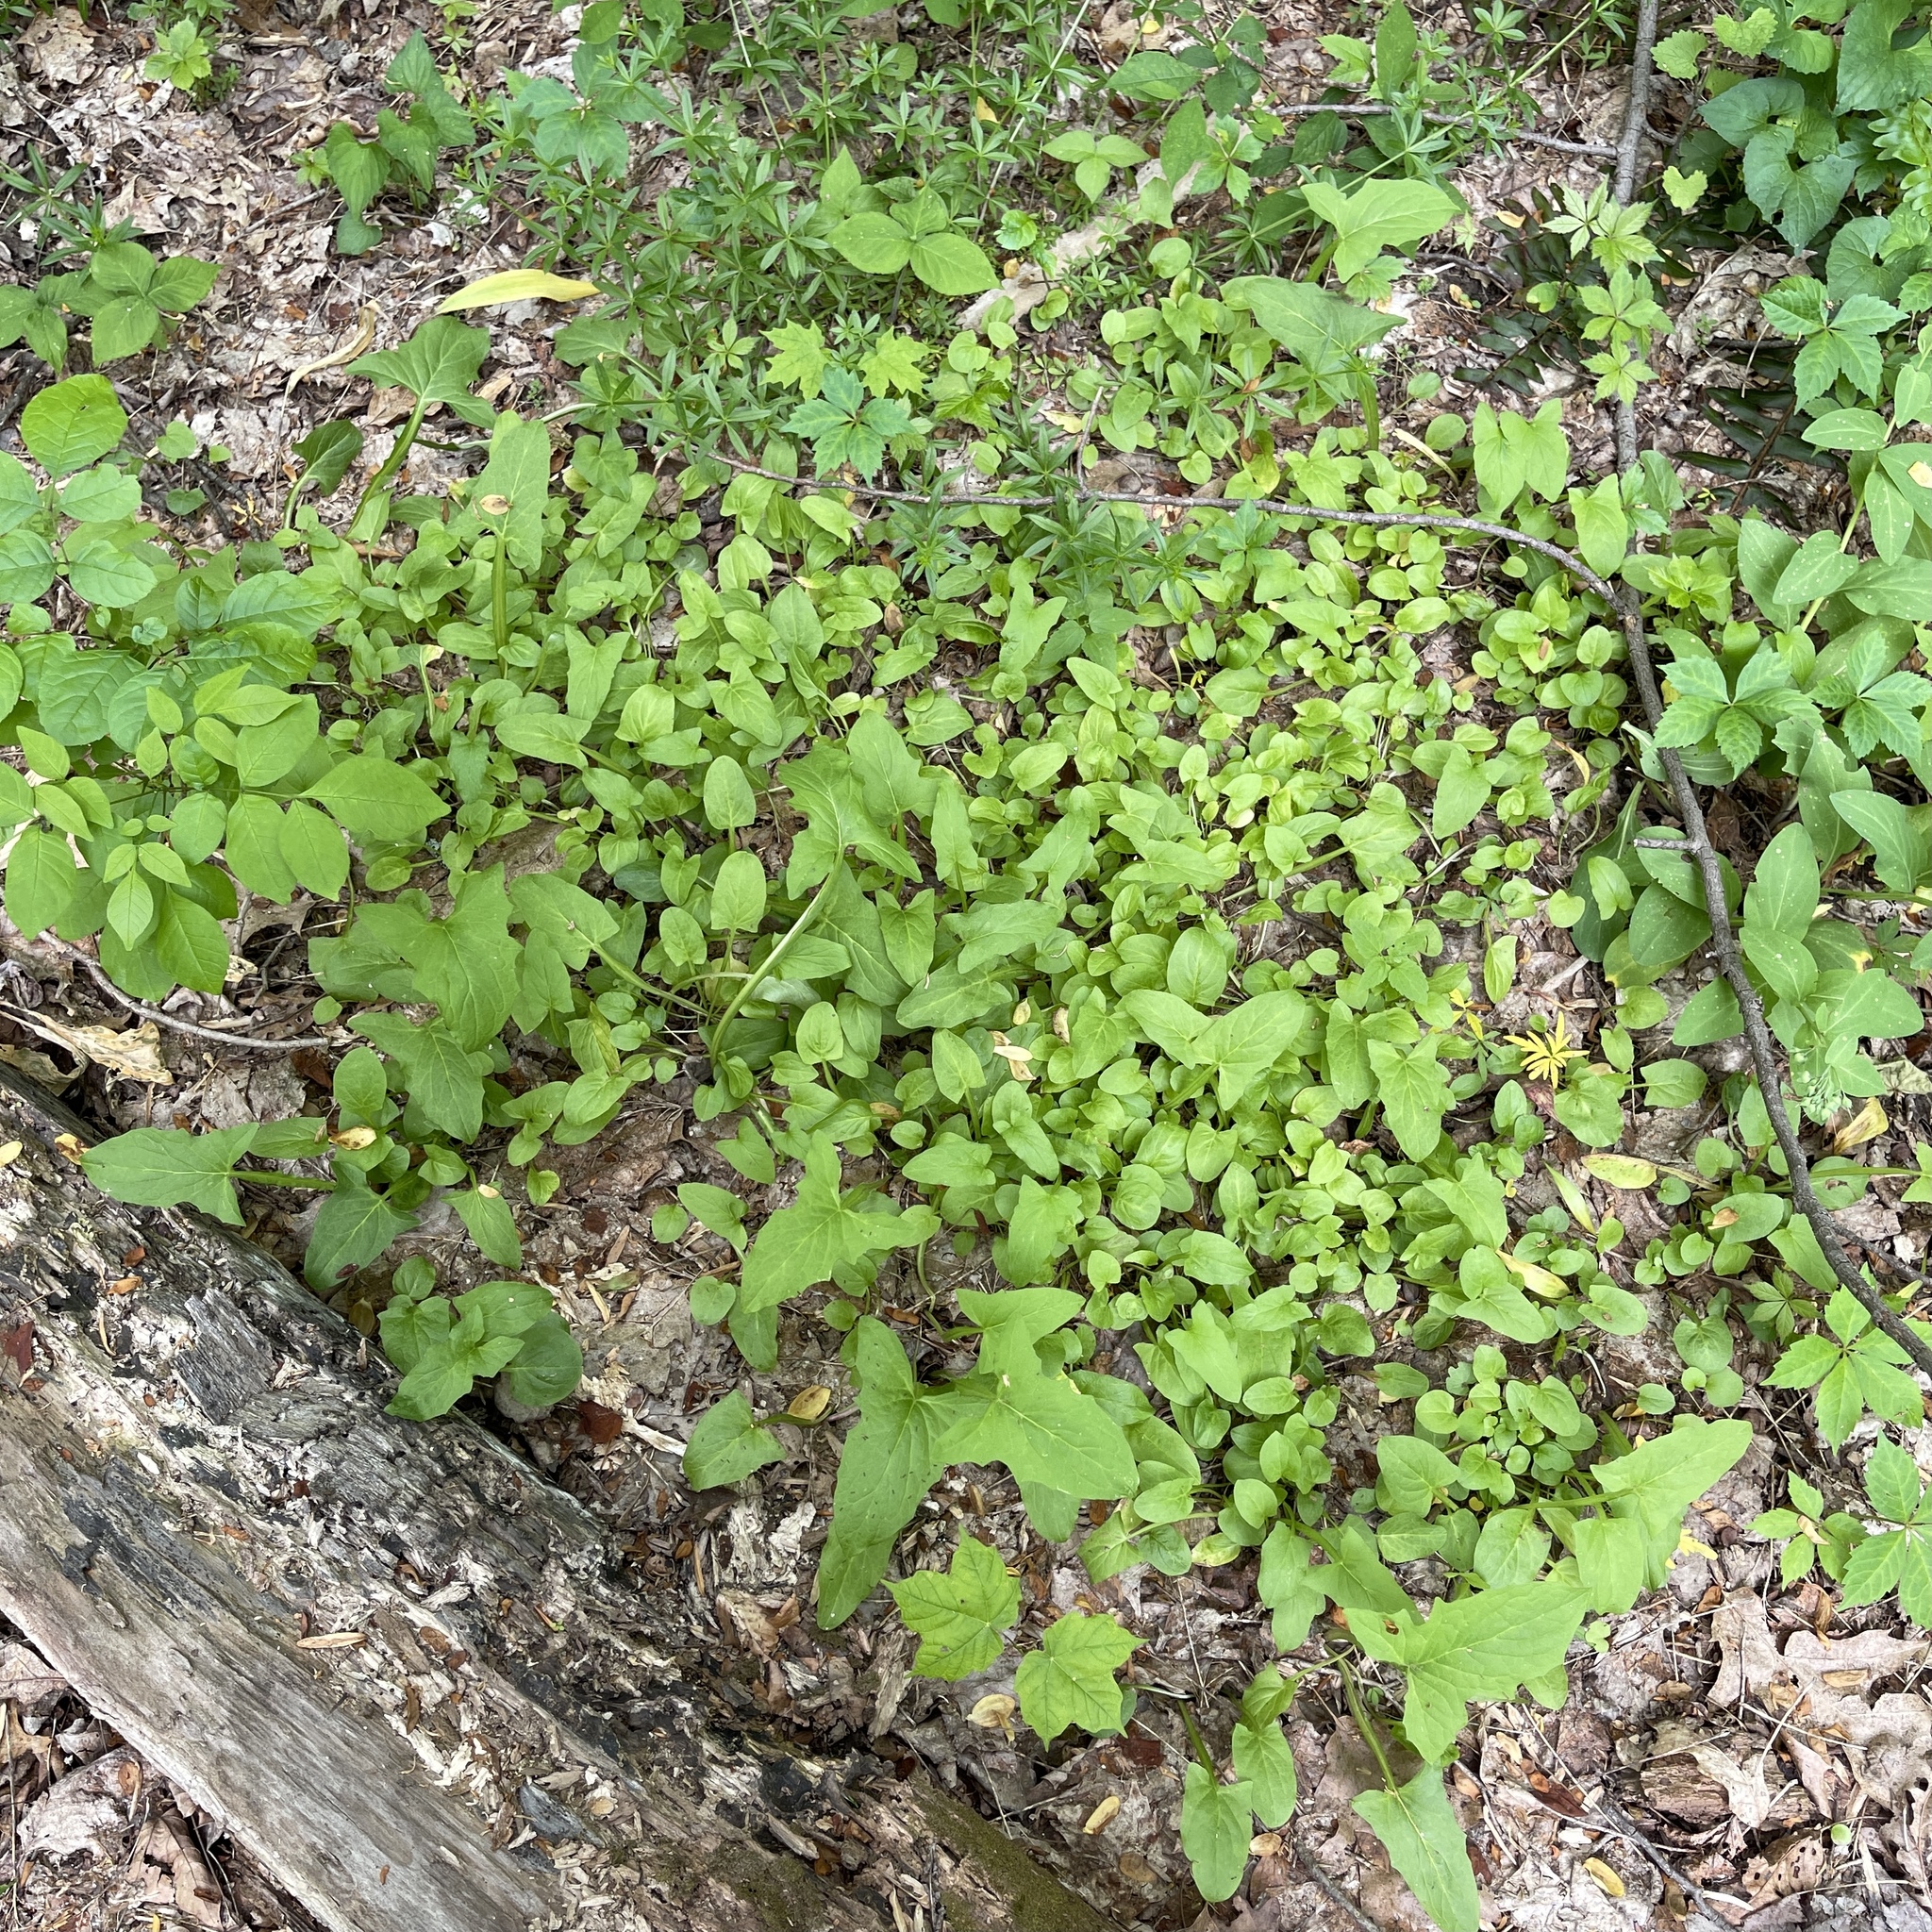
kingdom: Plantae
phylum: Tracheophyta
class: Magnoliopsida
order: Asterales
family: Asteraceae
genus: Nabalus
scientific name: Nabalus crepidineus
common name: Nodding rattlesnakeroot
